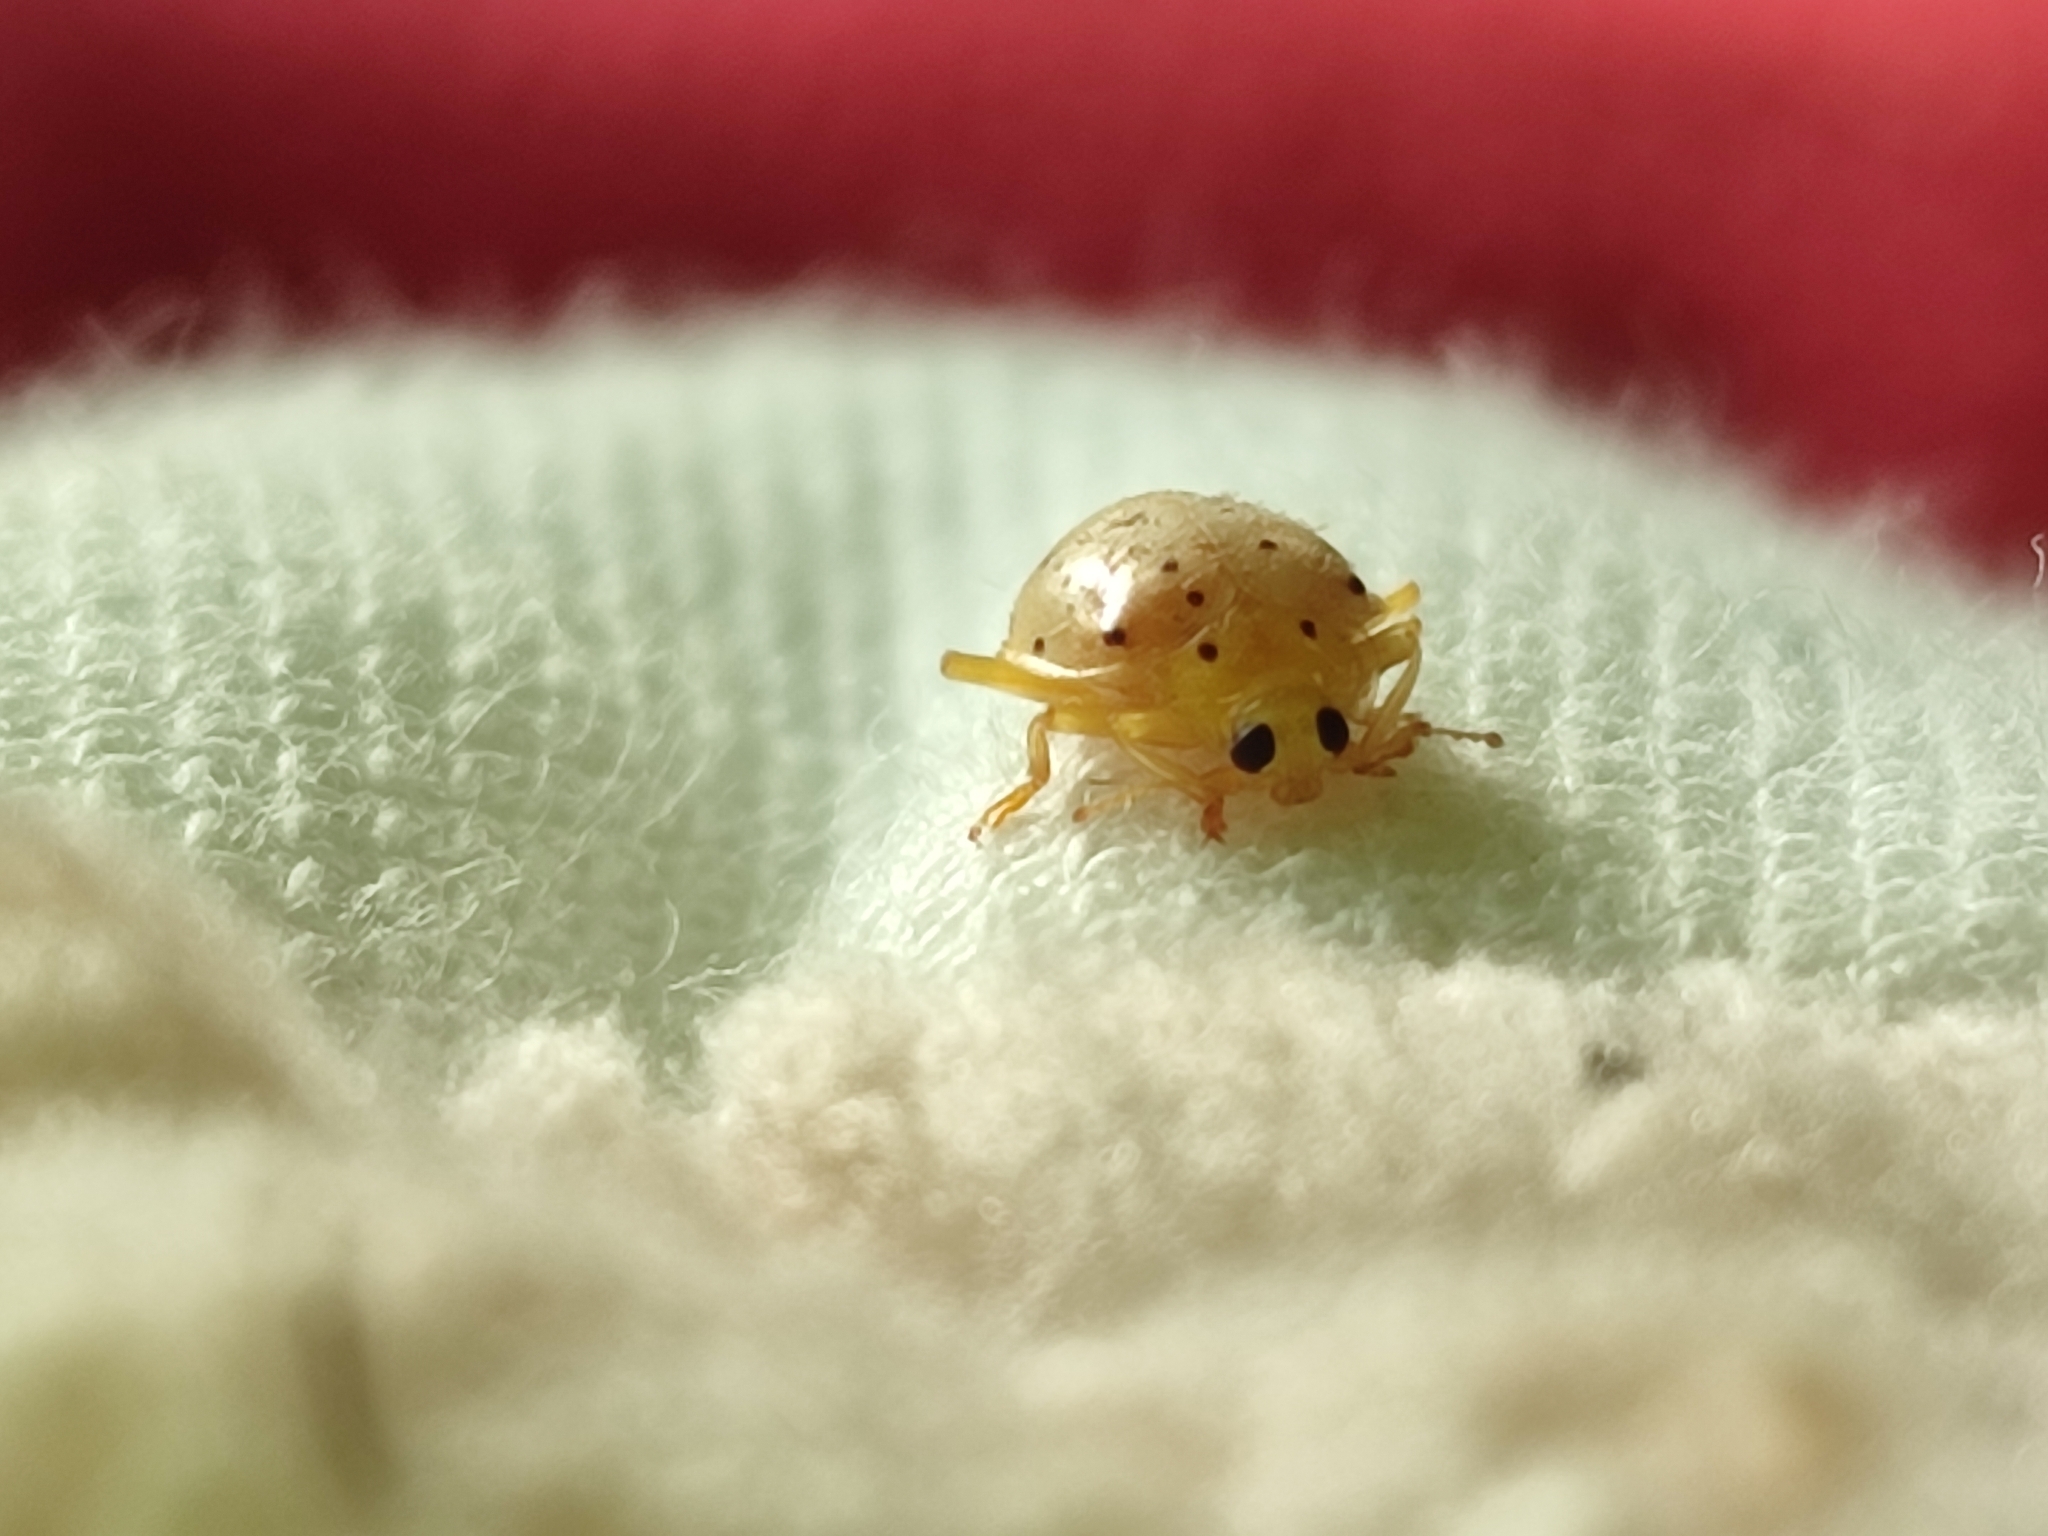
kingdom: Animalia
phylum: Arthropoda
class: Insecta
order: Coleoptera
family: Coccinellidae
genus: Neohalyzia
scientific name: Neohalyzia
